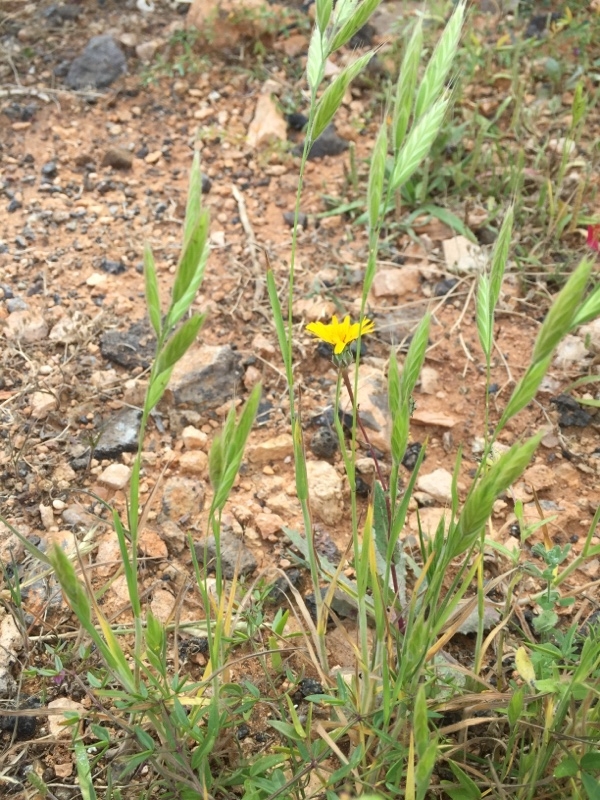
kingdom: Plantae
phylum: Tracheophyta
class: Liliopsida
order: Poales
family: Poaceae
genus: Brachypodium
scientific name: Brachypodium distachyon
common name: Stiff brome
